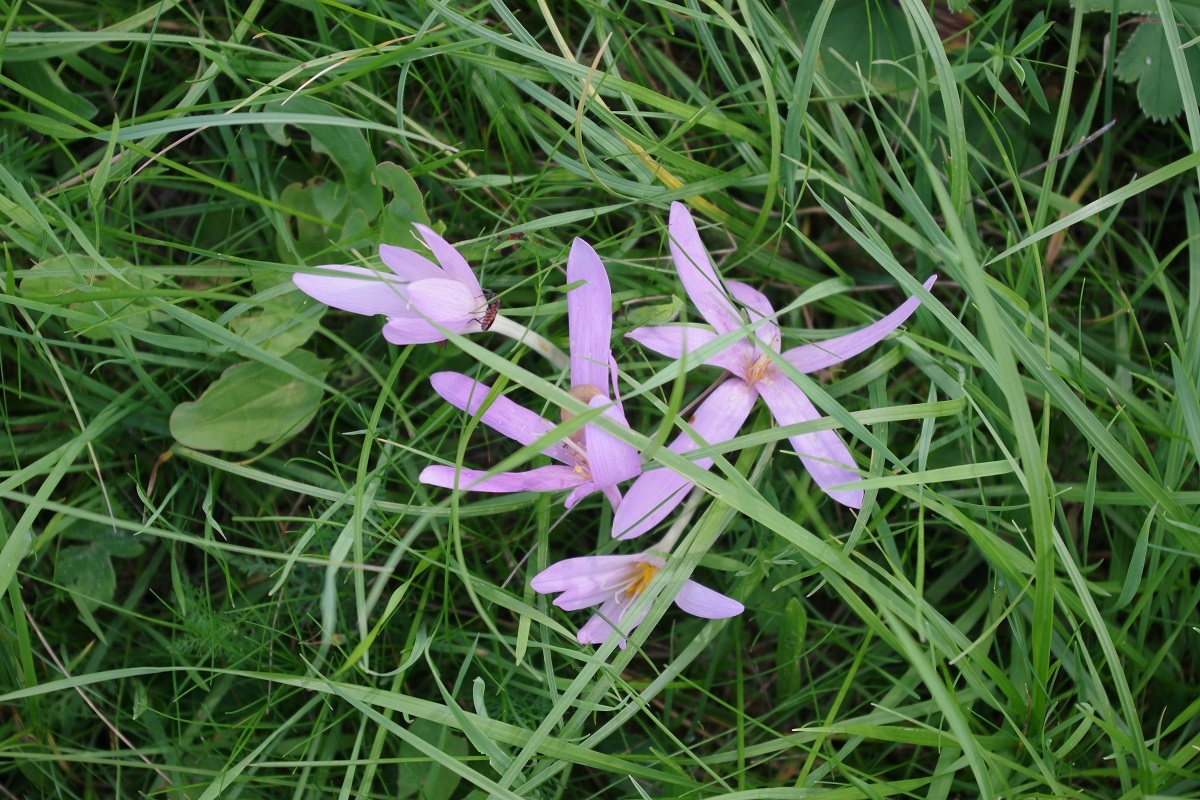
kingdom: Plantae
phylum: Tracheophyta
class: Liliopsida
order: Liliales
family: Colchicaceae
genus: Colchicum
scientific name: Colchicum autumnale
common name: Autumn crocus
